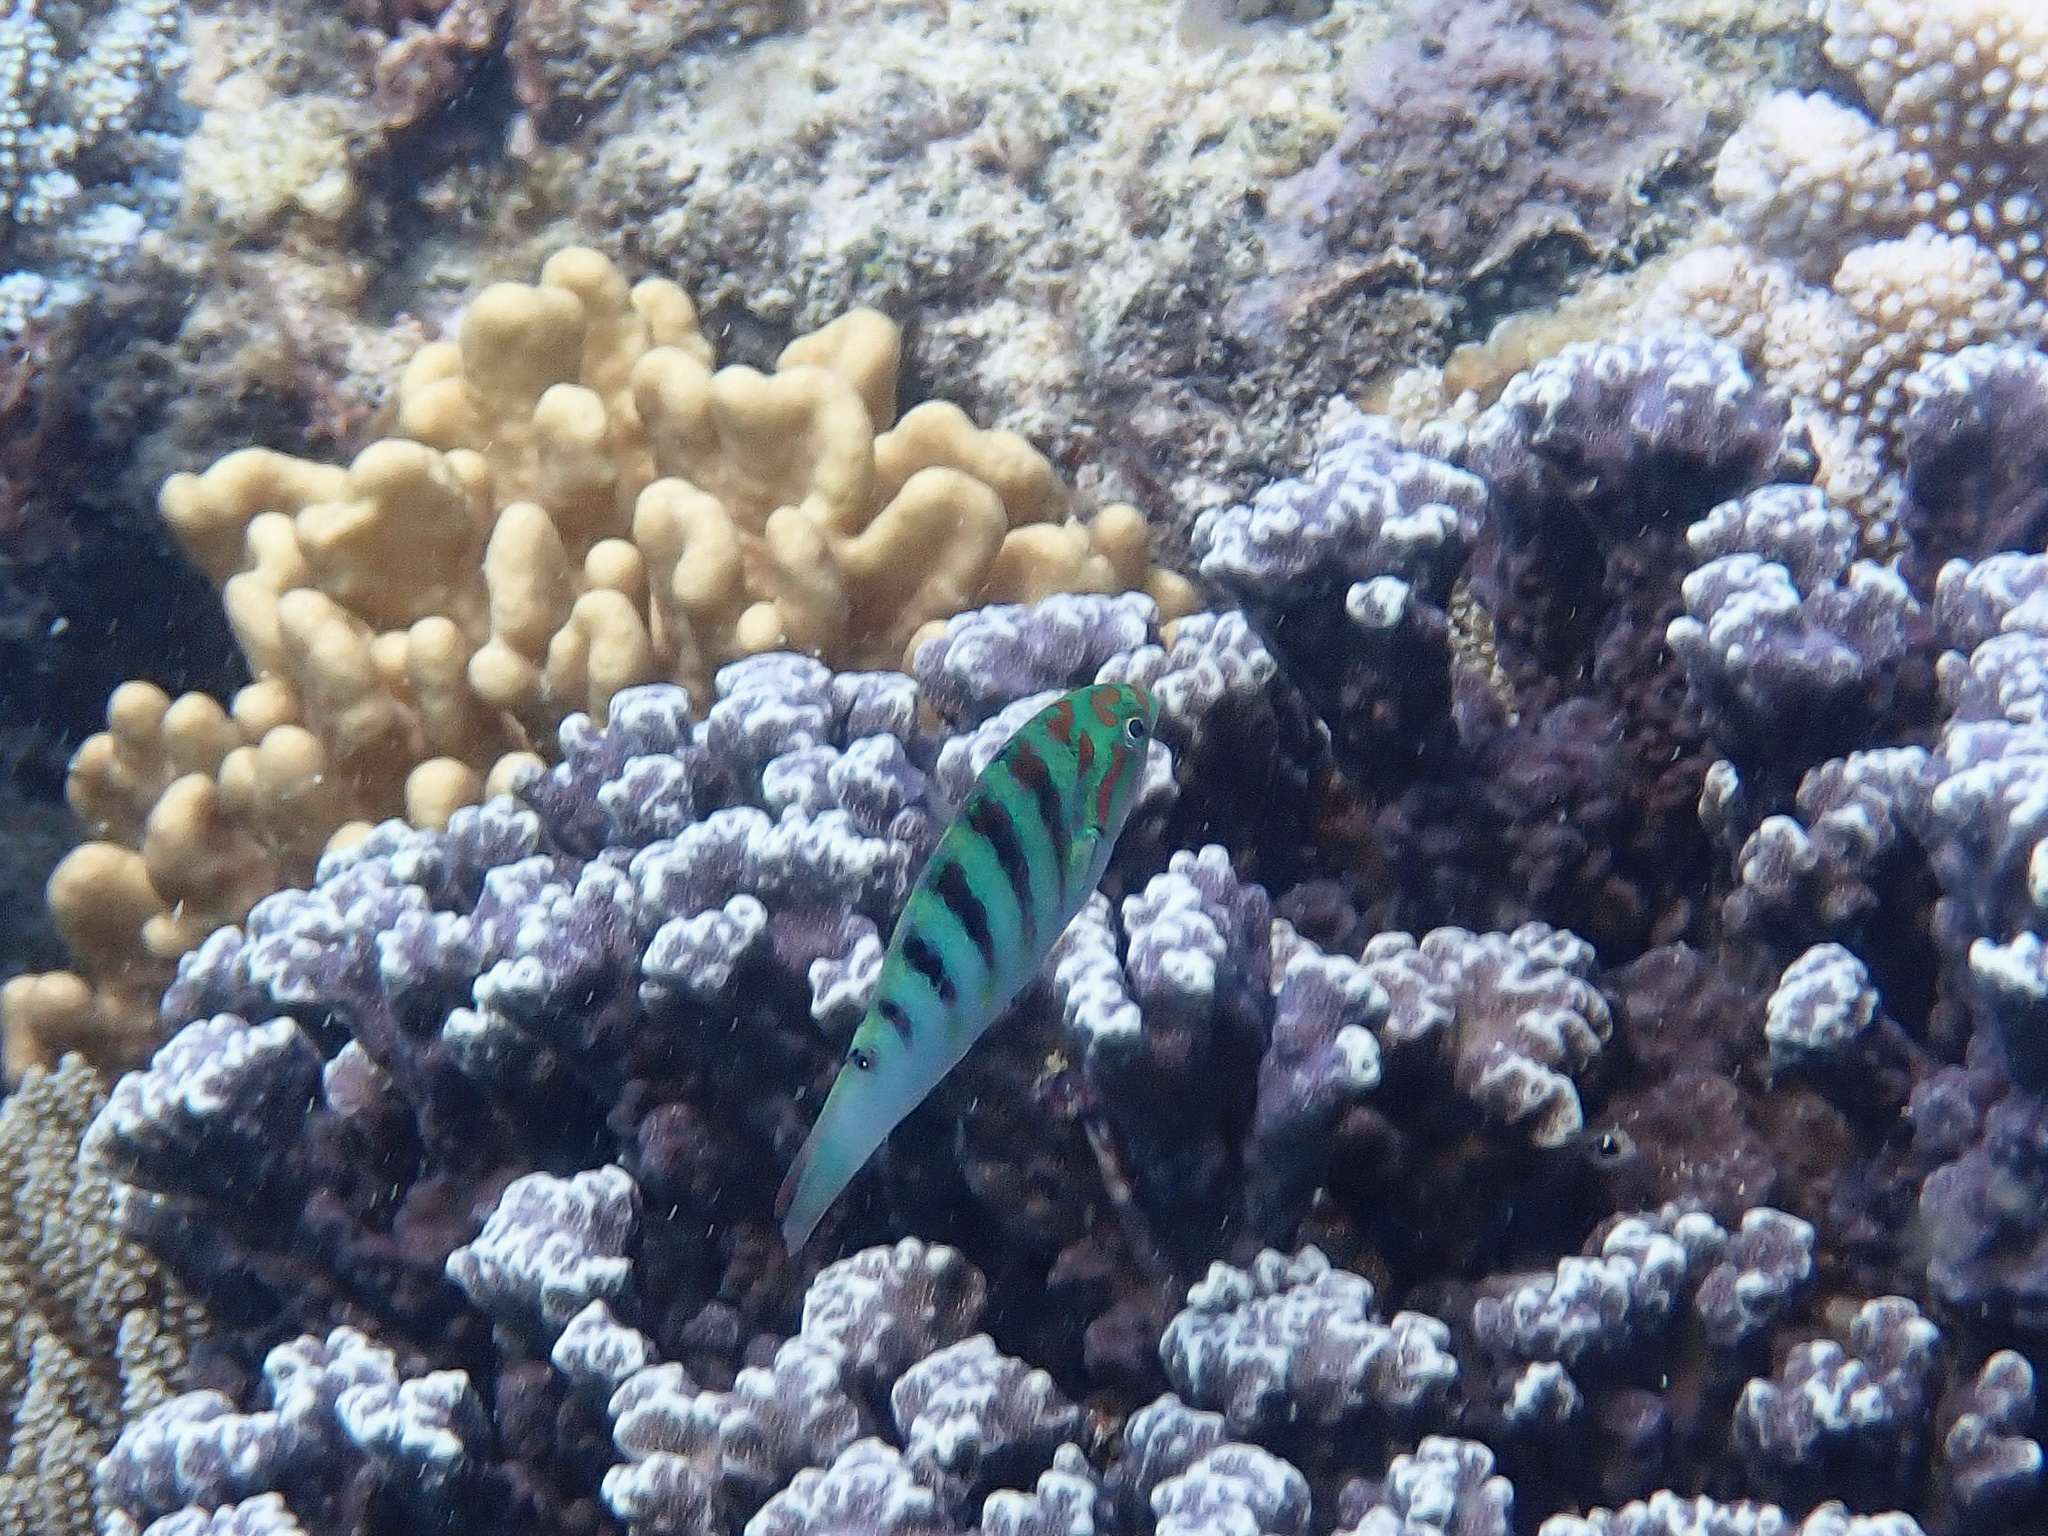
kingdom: Animalia
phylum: Chordata
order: Perciformes
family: Labridae
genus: Thalassoma
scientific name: Thalassoma hardwicke
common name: Sixbar wrasse
